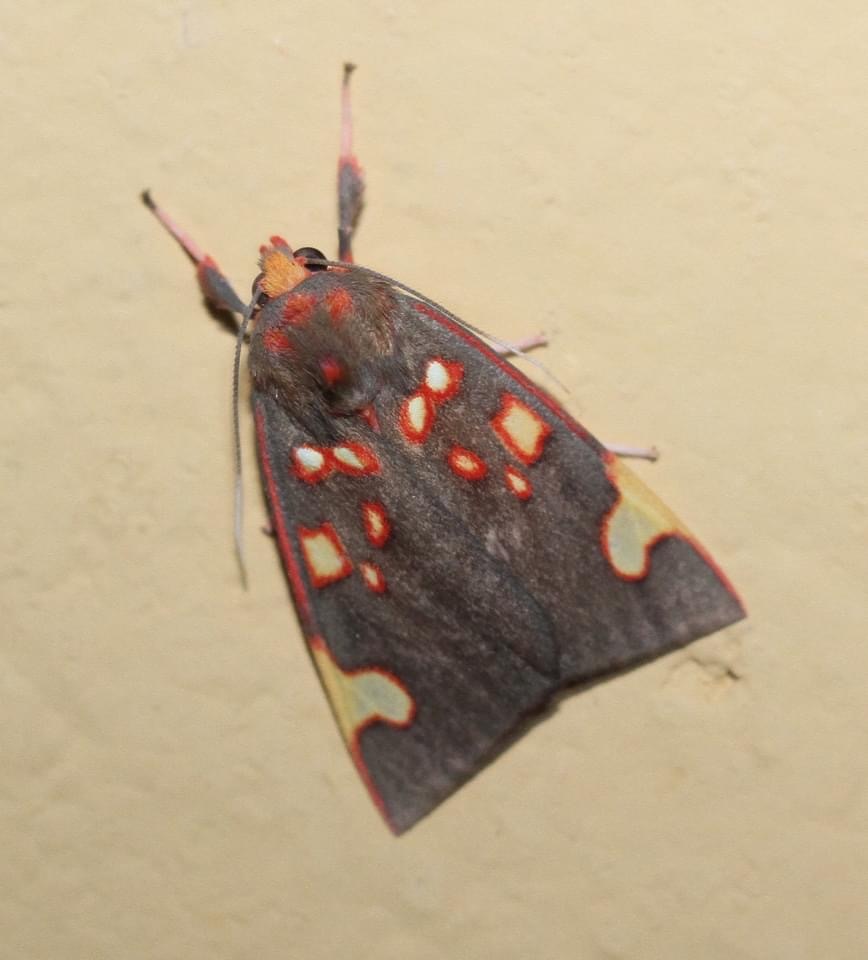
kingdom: Animalia
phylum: Arthropoda
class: Insecta
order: Lepidoptera
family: Erebidae
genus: Melese
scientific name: Melese costimacula
